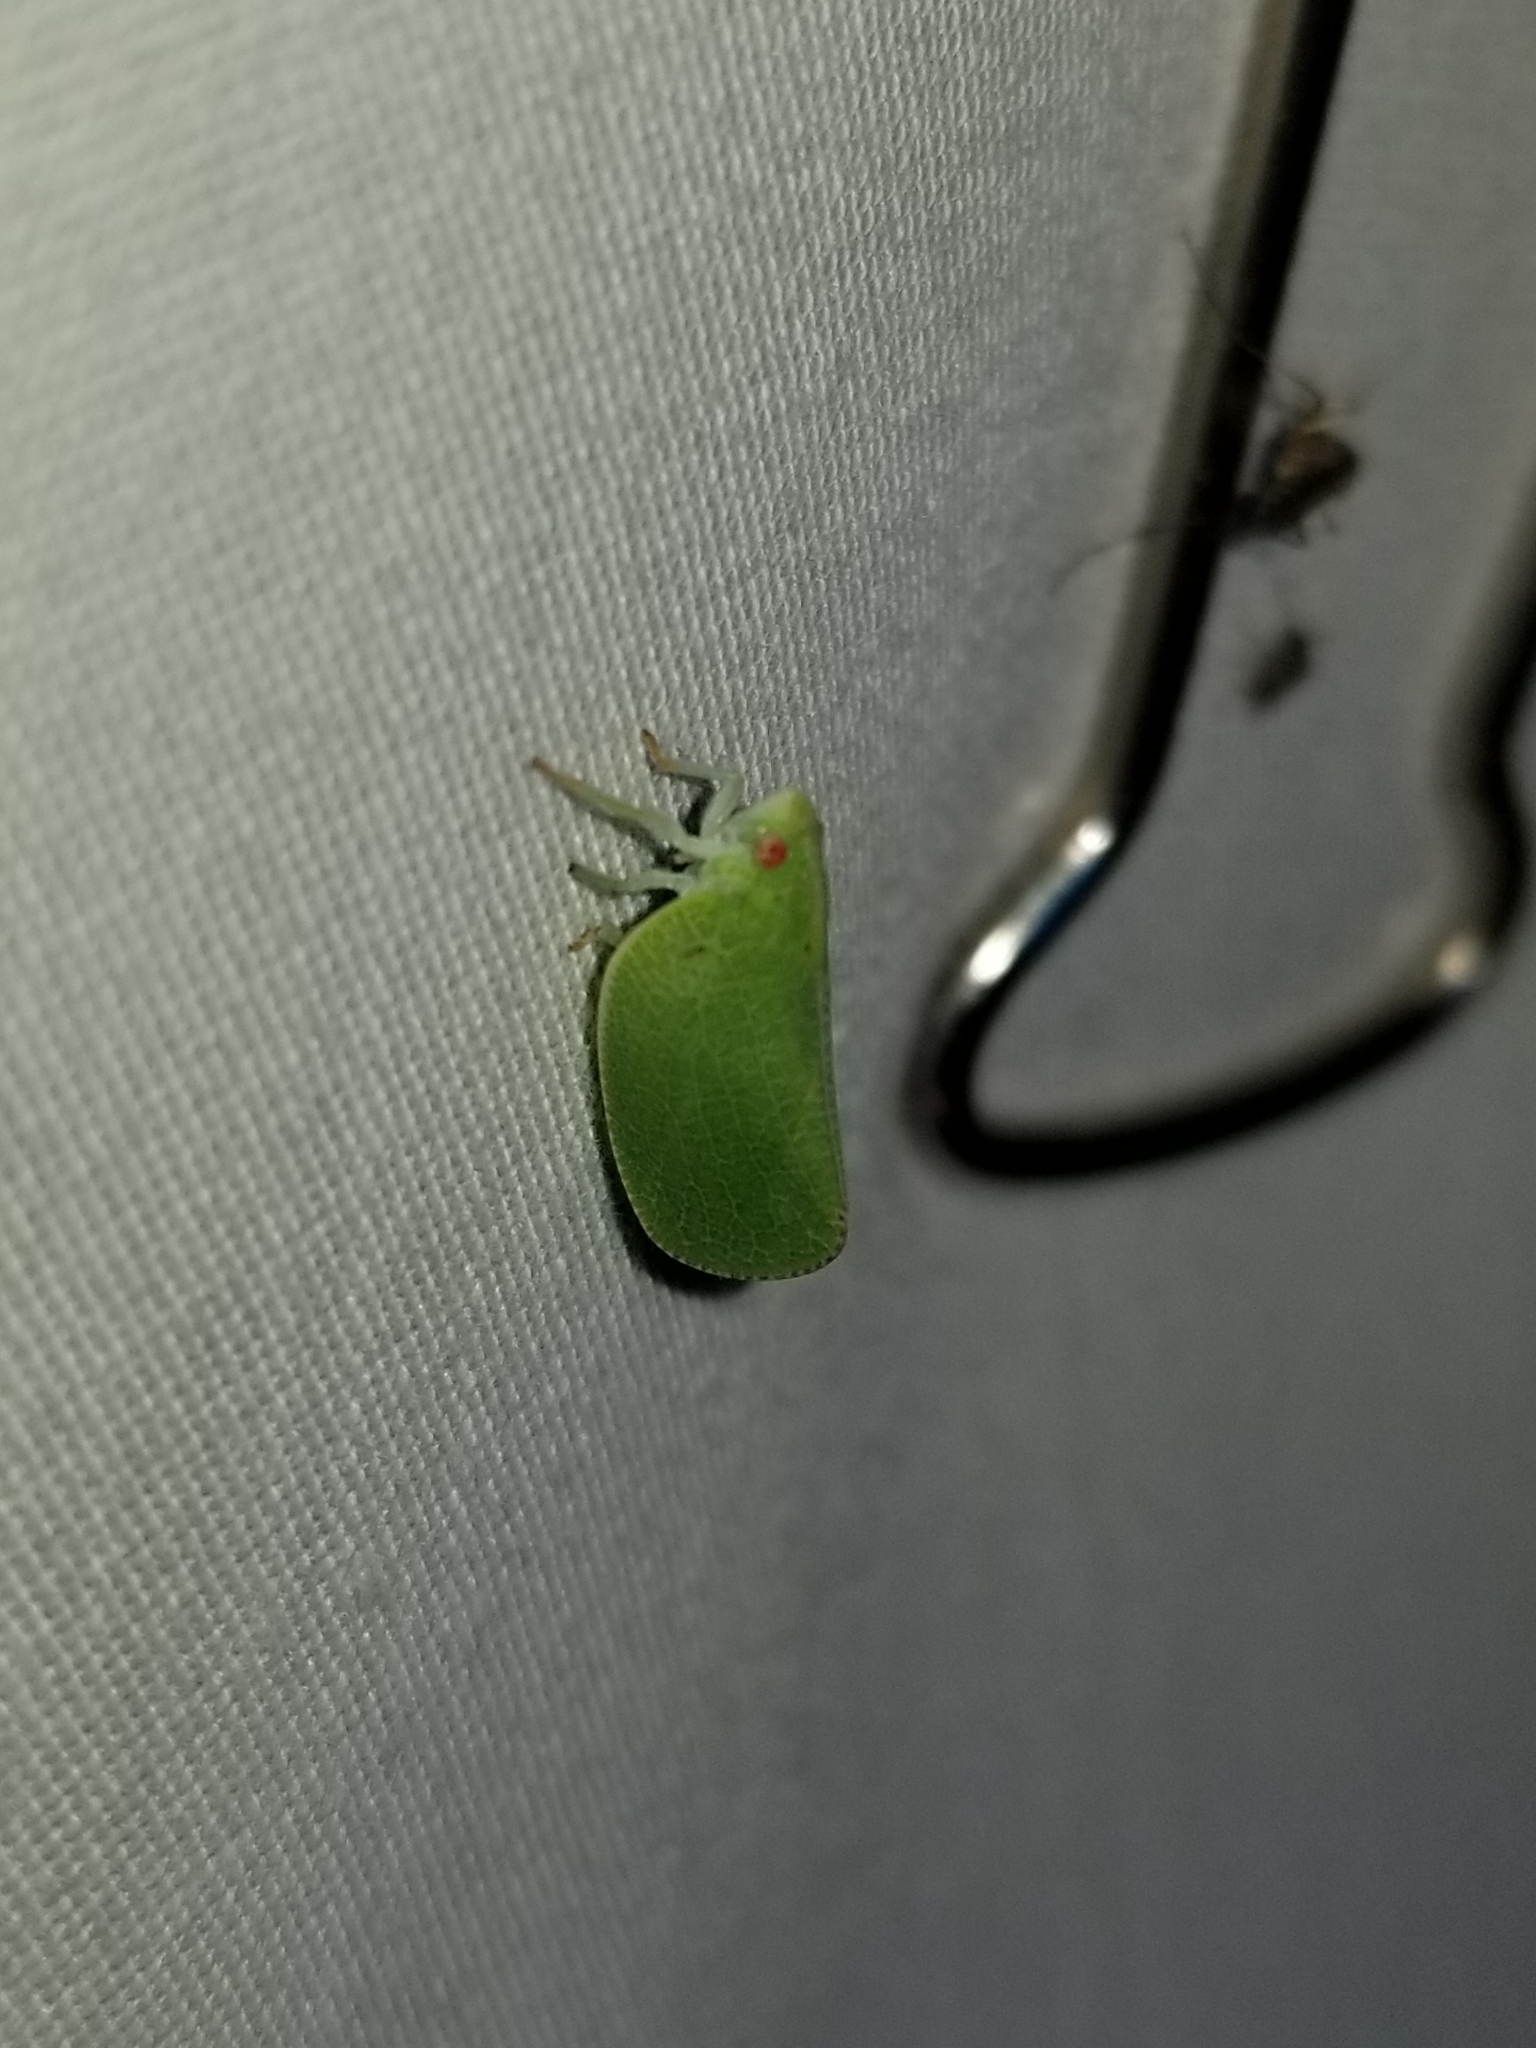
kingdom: Animalia
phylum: Arthropoda
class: Insecta
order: Hemiptera
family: Acanaloniidae
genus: Acanalonia
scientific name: Acanalonia conica
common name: Green cone-headed planthopper
